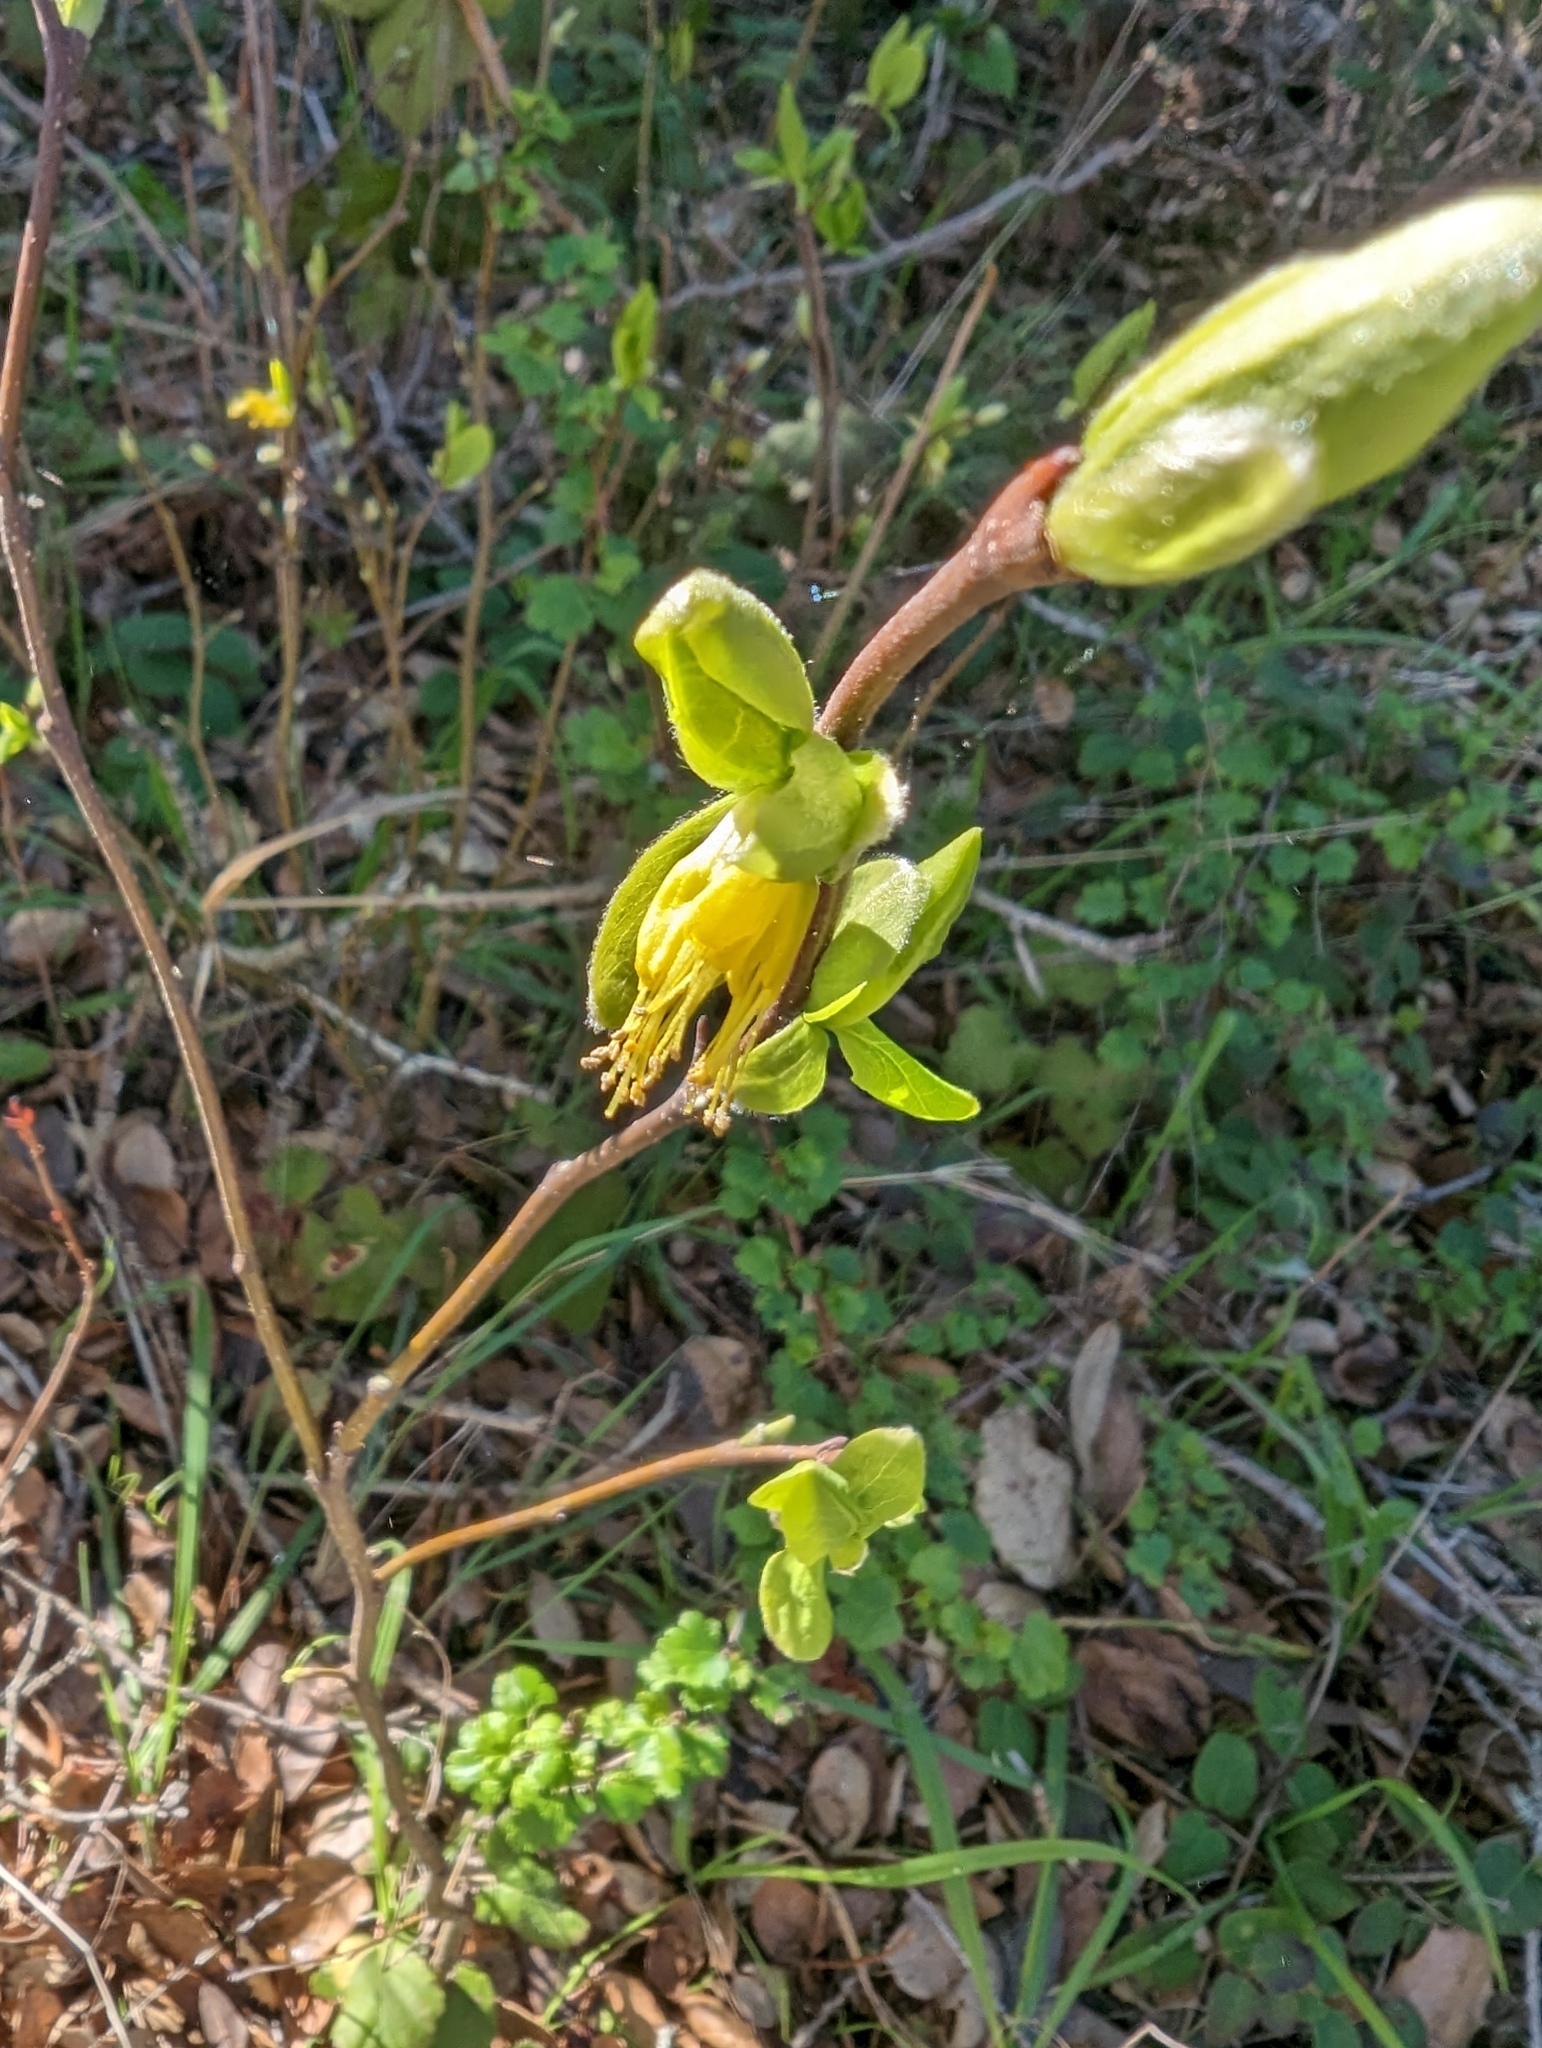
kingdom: Plantae
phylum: Tracheophyta
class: Magnoliopsida
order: Malvales
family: Thymelaeaceae
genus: Dirca
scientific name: Dirca occidentalis
